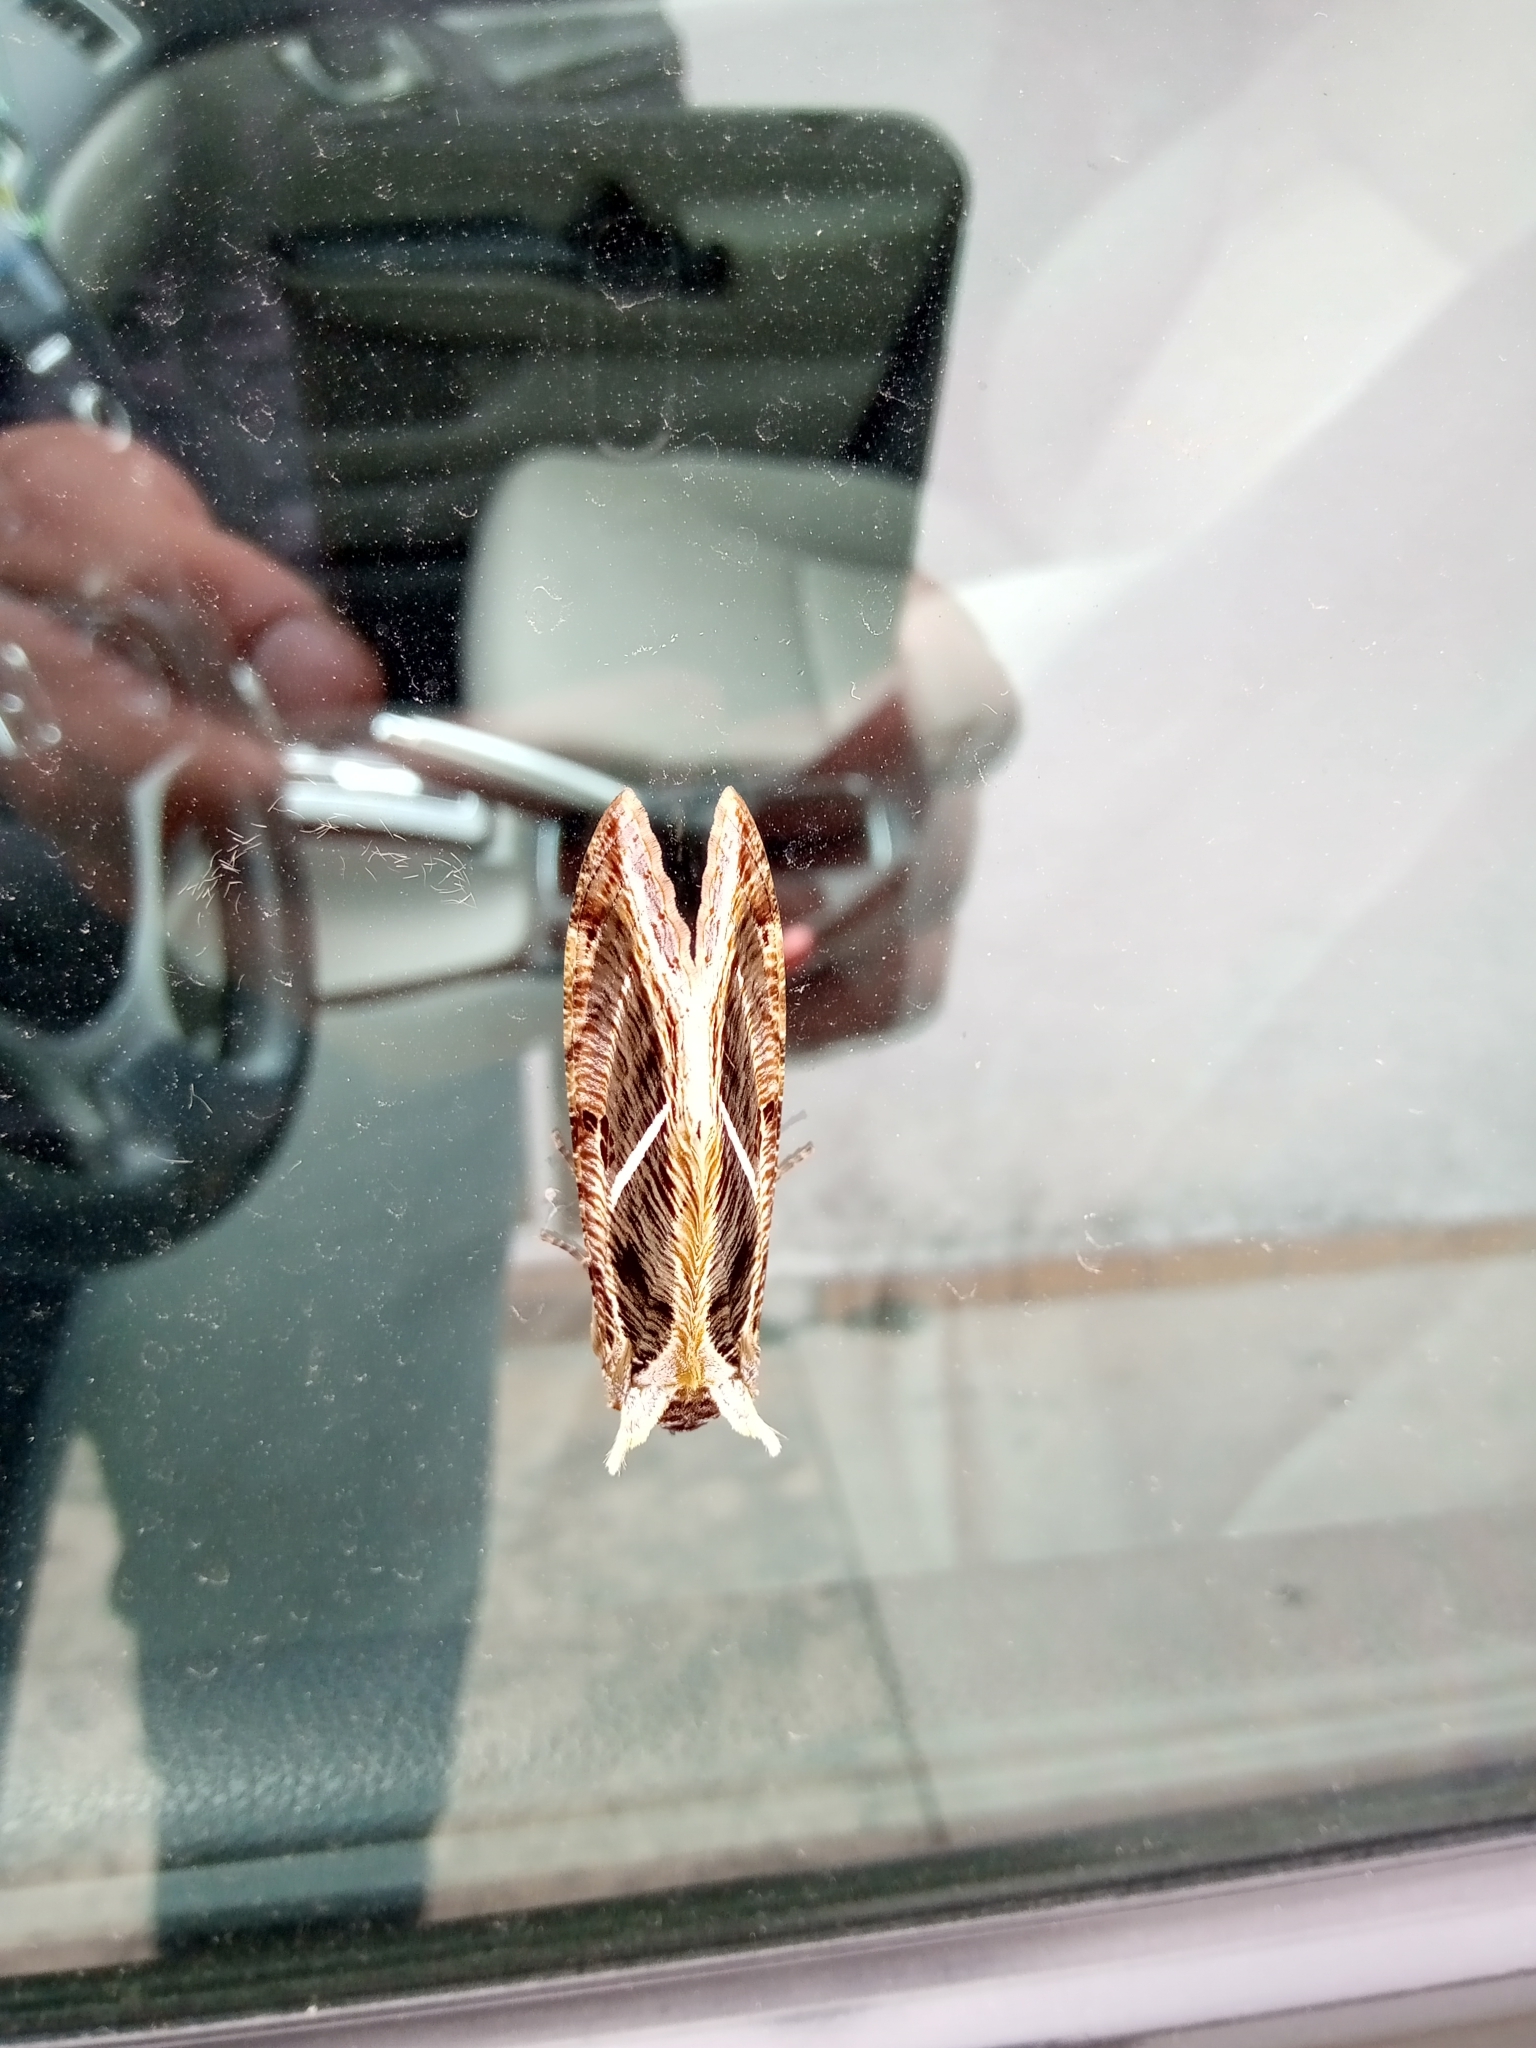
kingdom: Animalia
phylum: Arthropoda
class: Insecta
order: Lepidoptera
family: Erebidae
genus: Eudocima
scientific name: Eudocima apta
